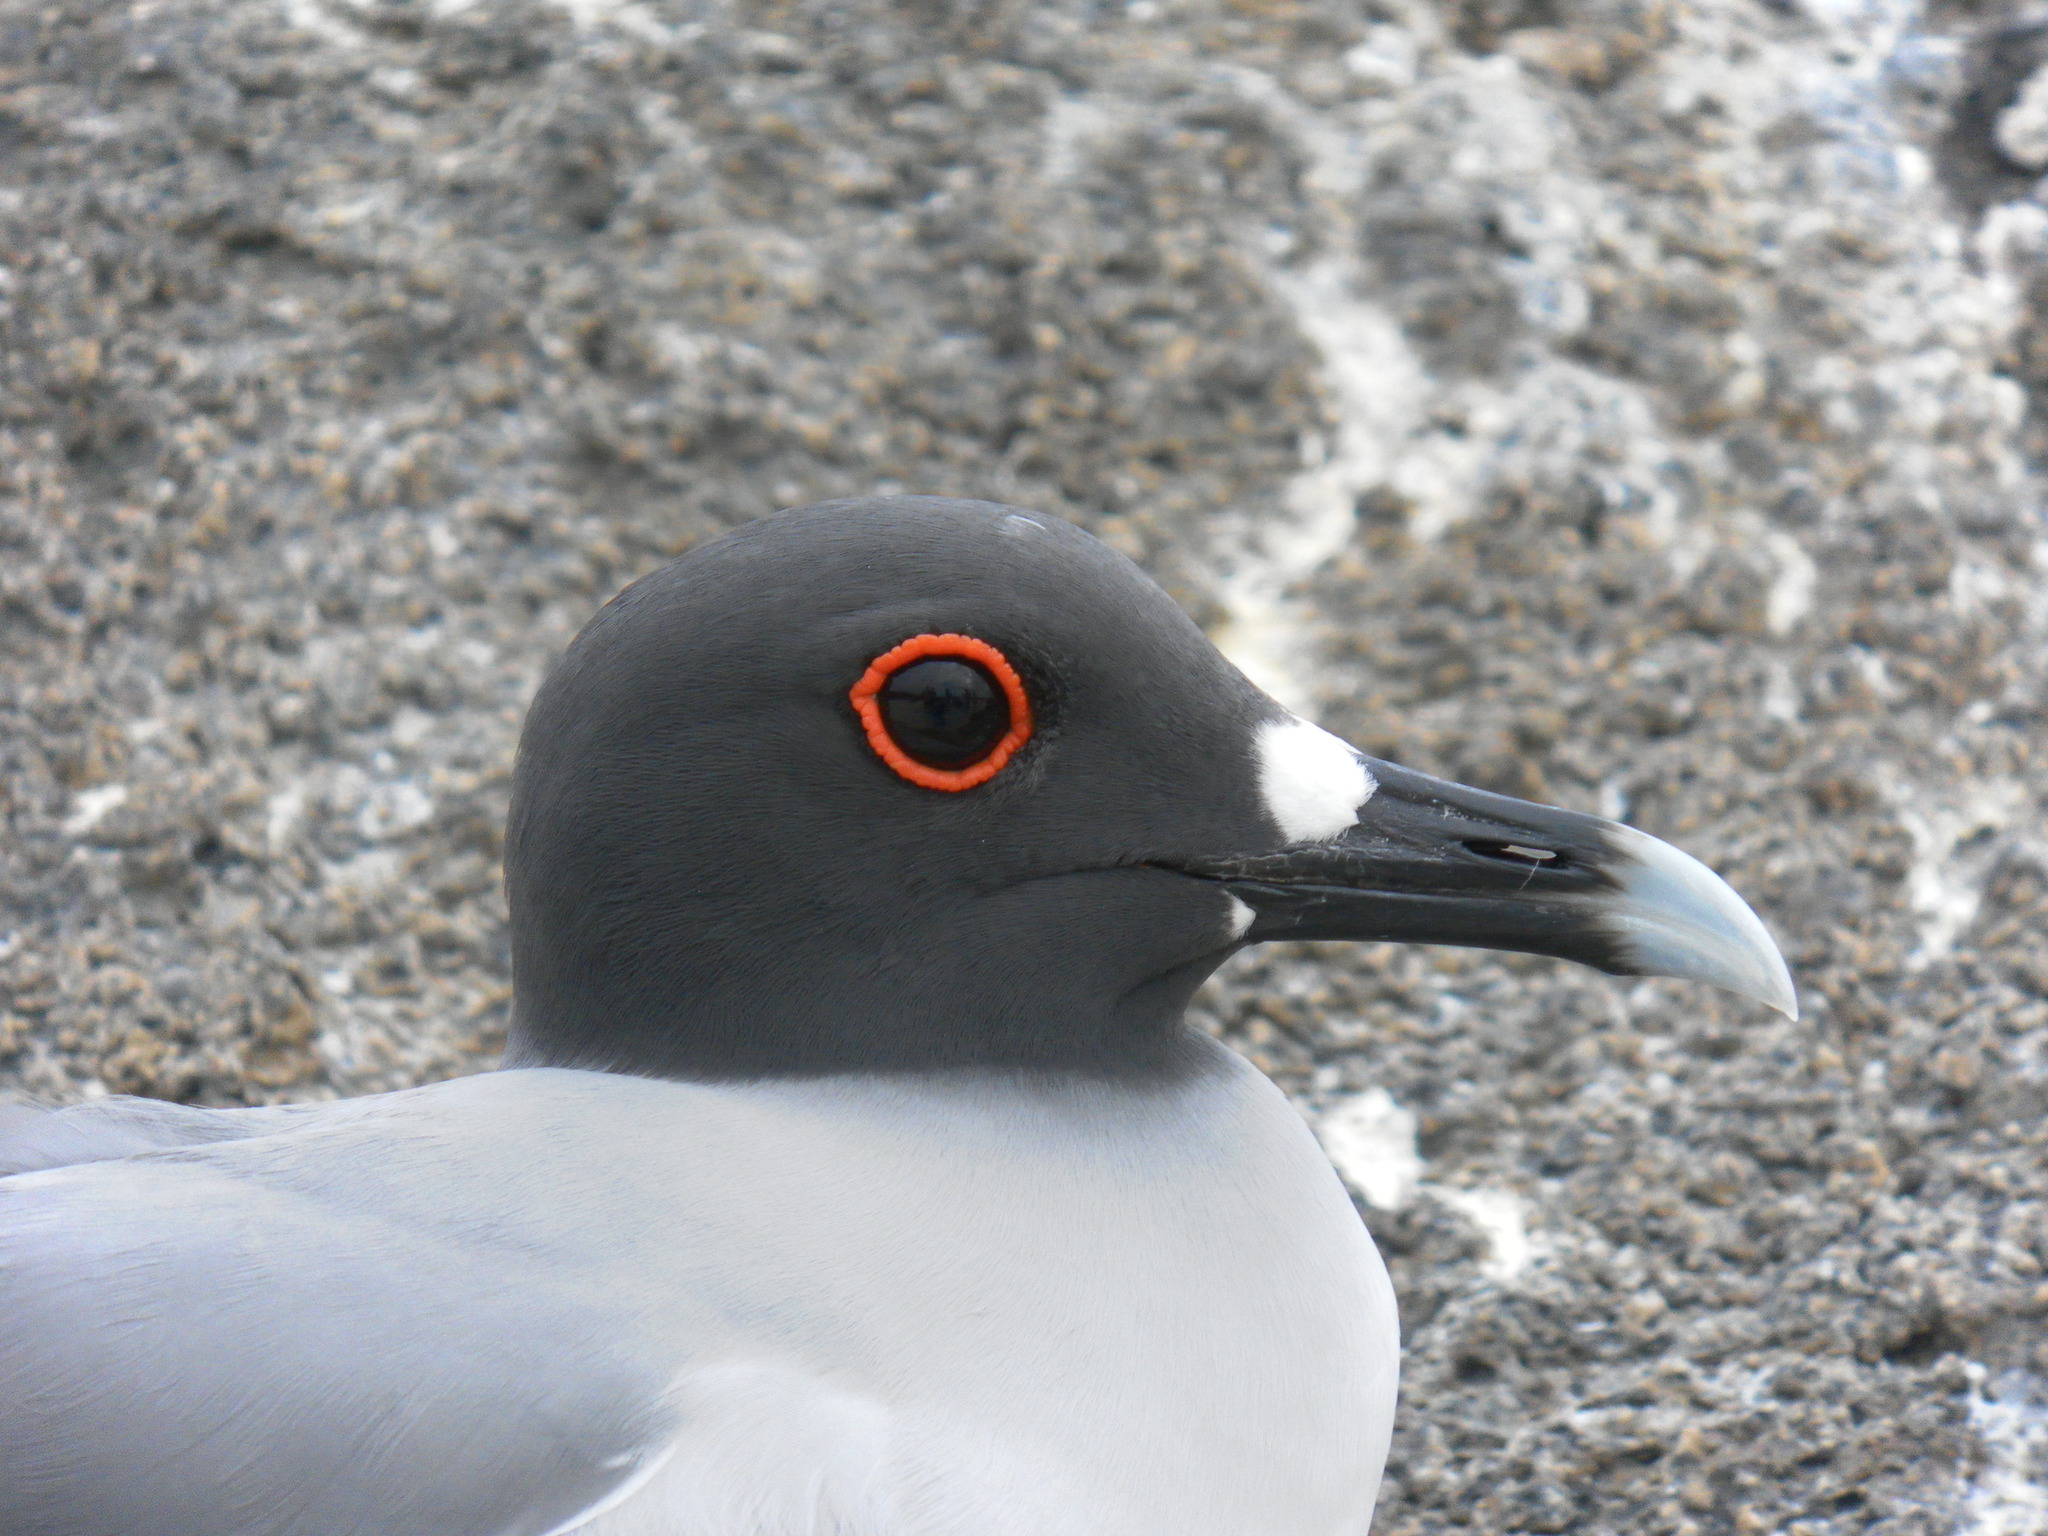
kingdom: Animalia
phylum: Chordata
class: Aves
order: Charadriiformes
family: Laridae
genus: Creagrus
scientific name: Creagrus furcatus
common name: Swallow-tailed gull
